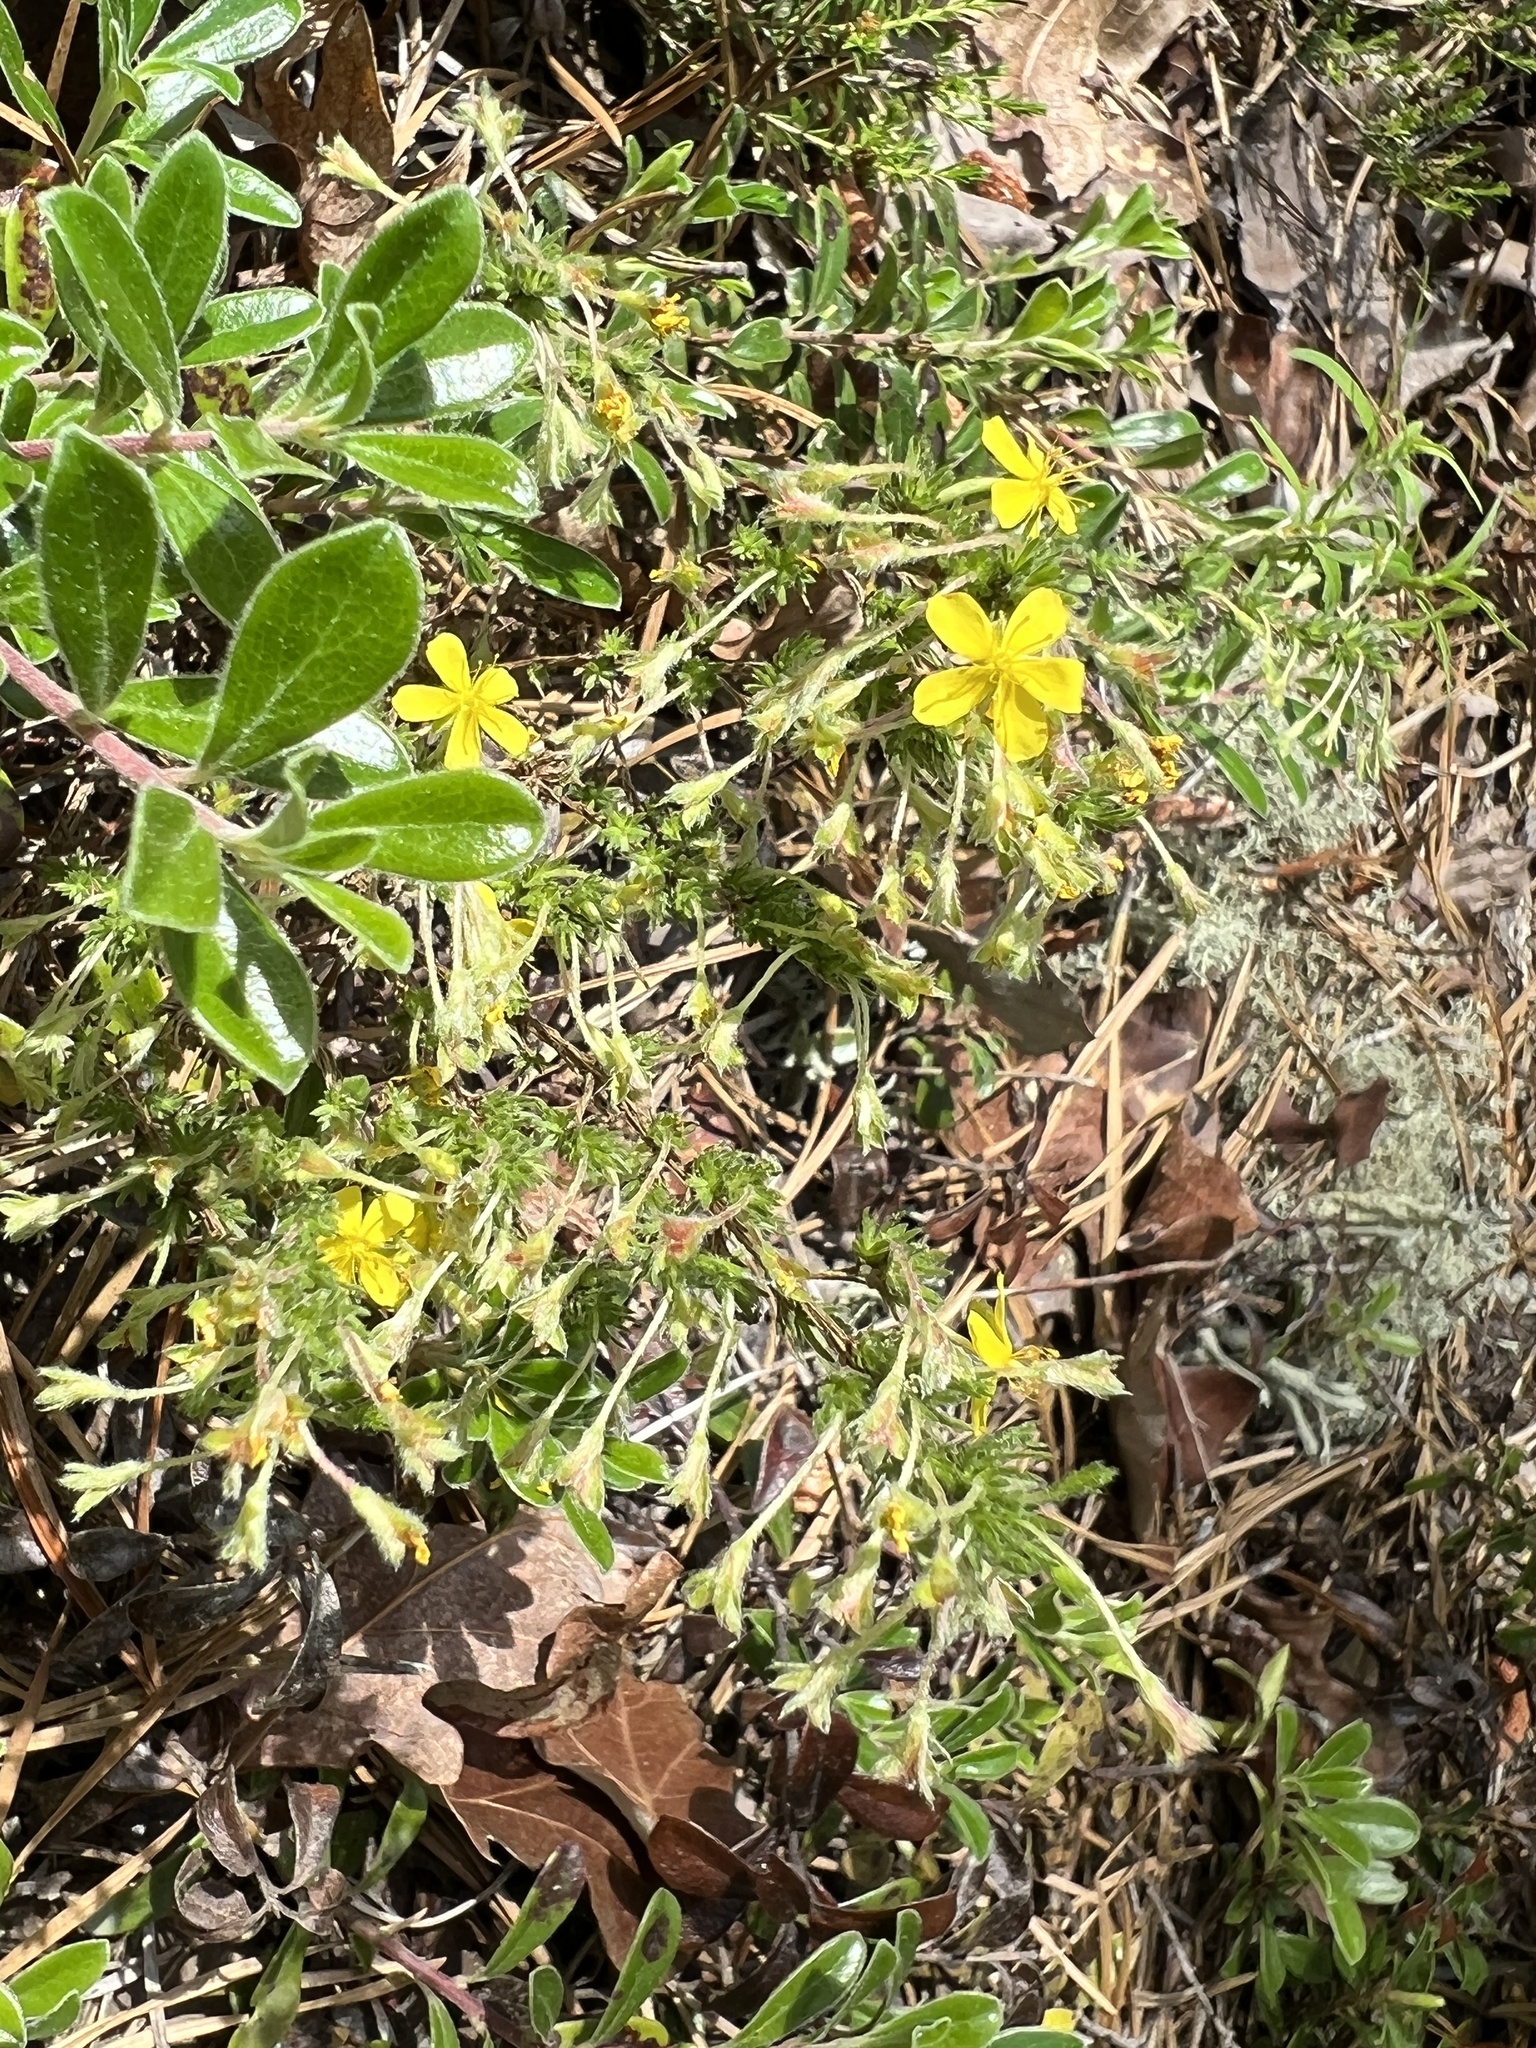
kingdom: Plantae
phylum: Tracheophyta
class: Magnoliopsida
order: Malvales
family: Cistaceae
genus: Hudsonia
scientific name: Hudsonia ericoides
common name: Golden-heather
